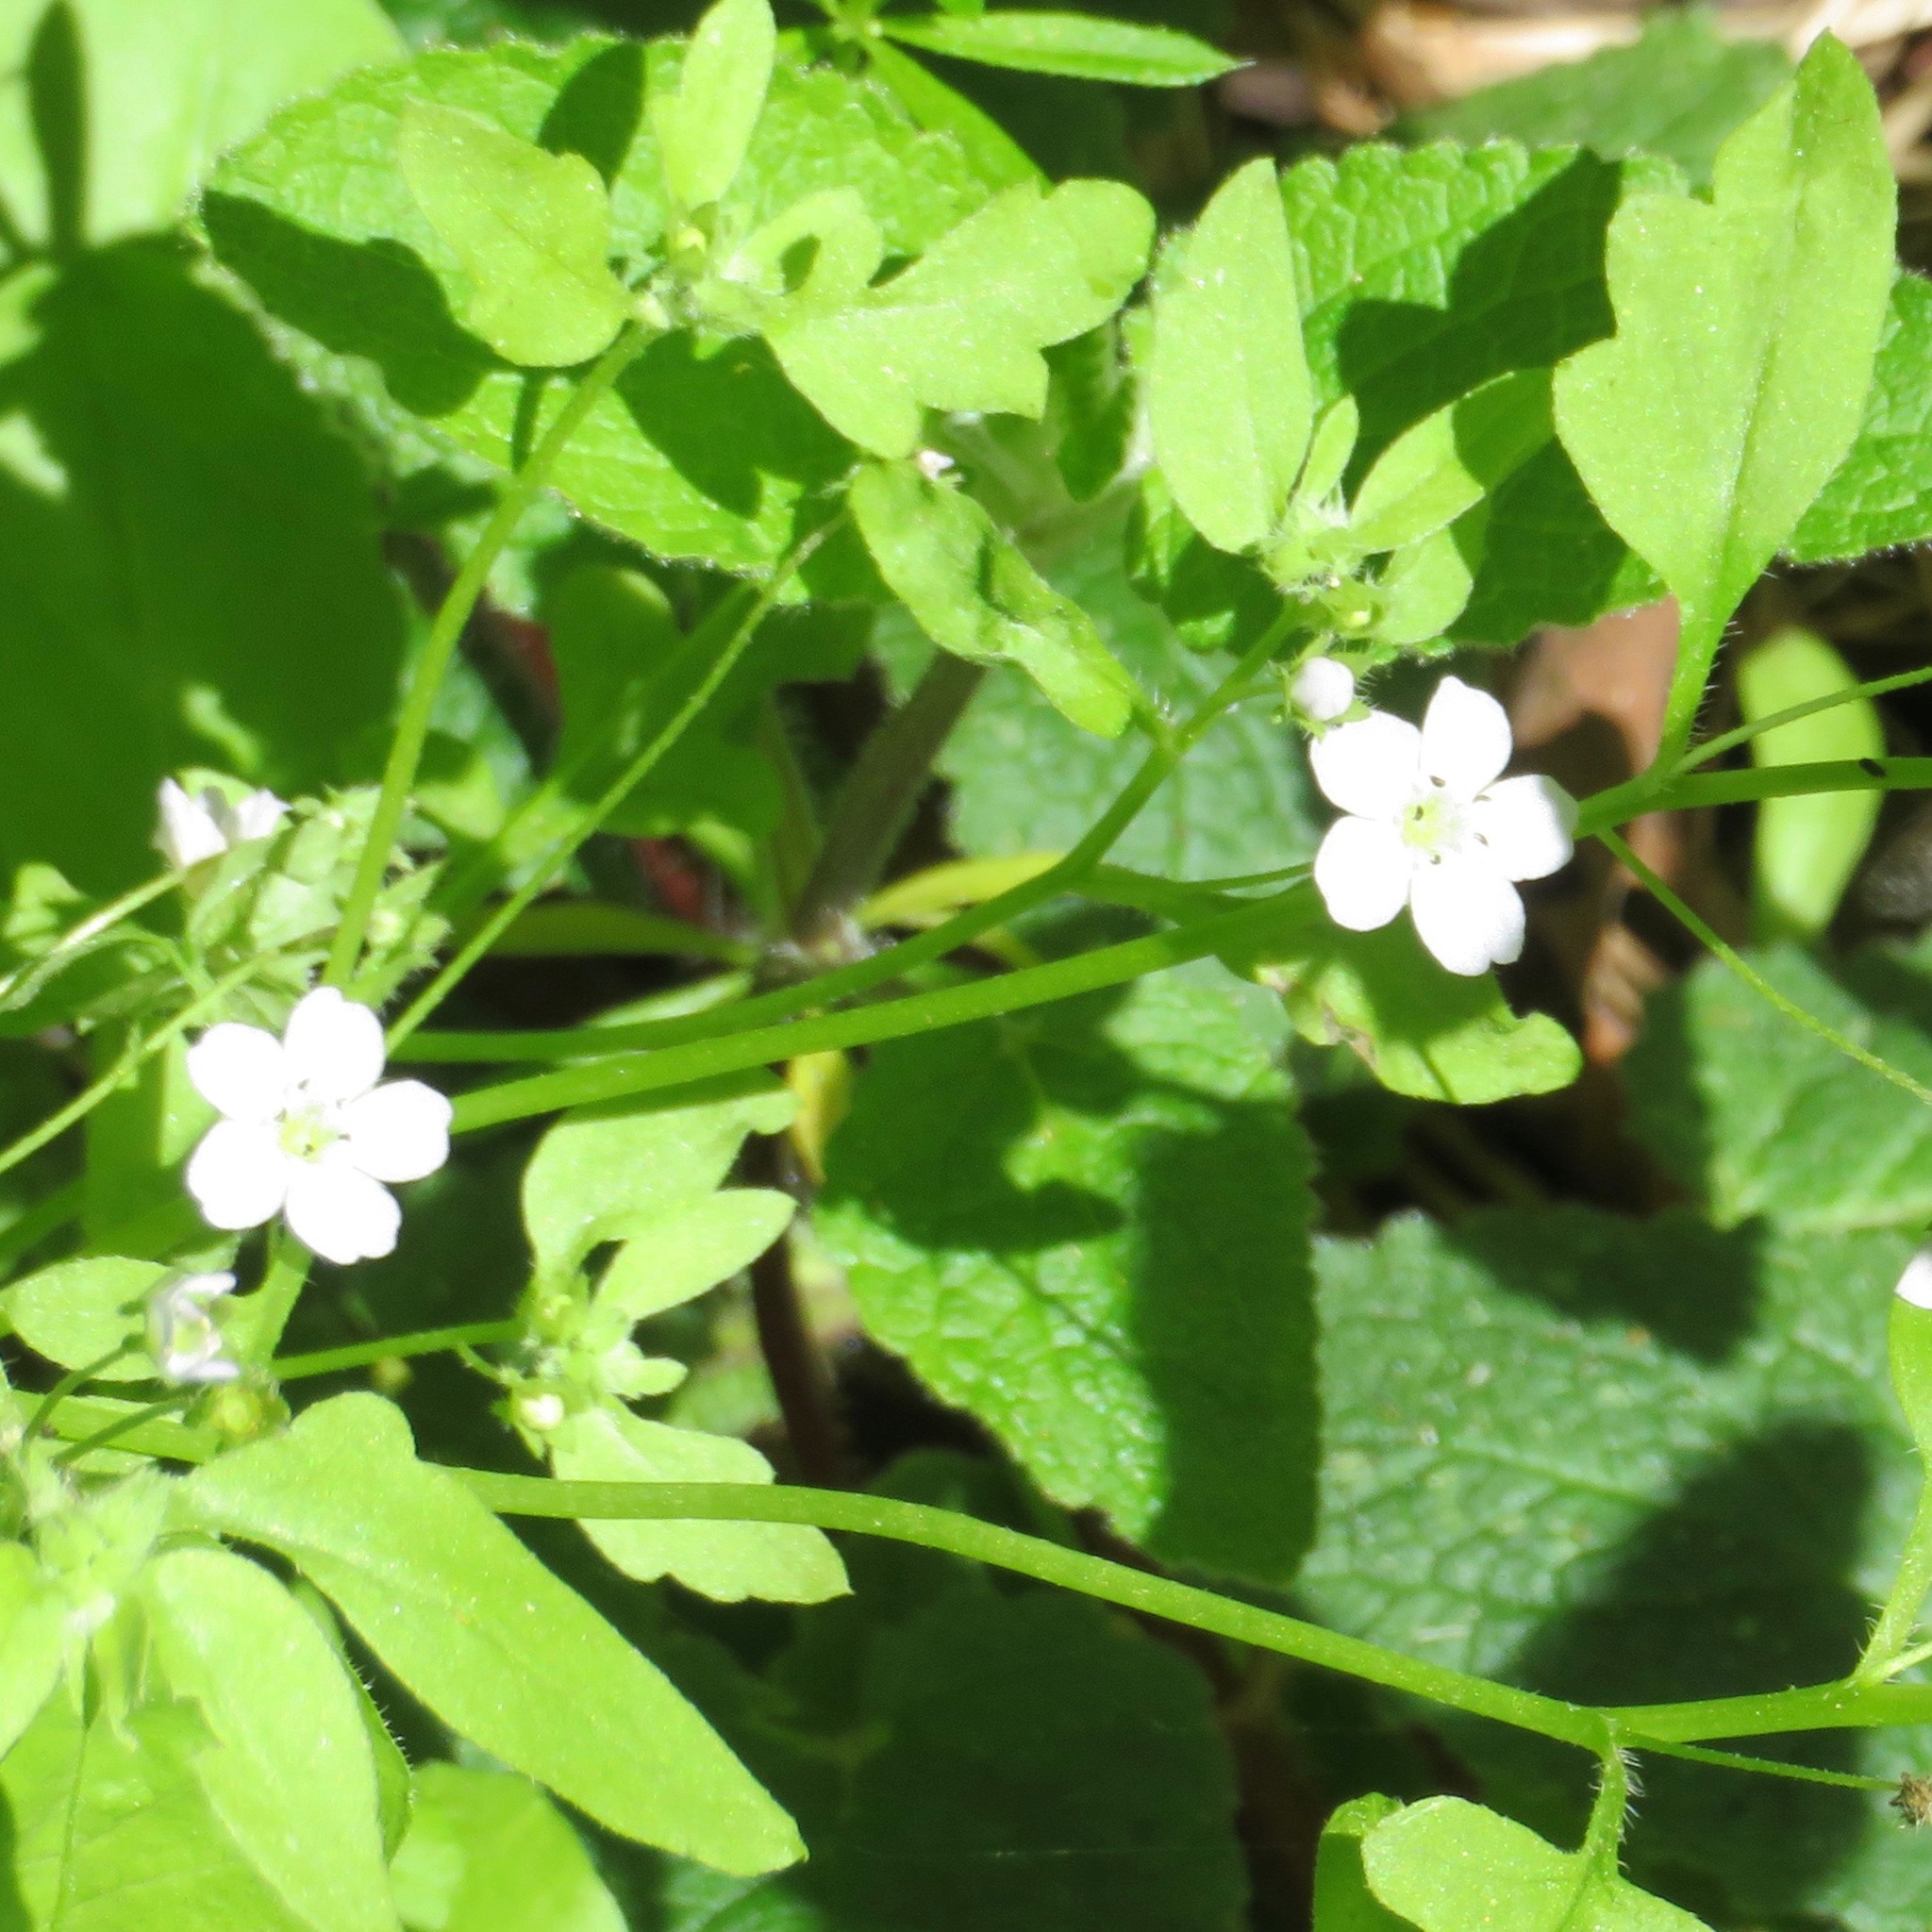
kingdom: Plantae
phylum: Tracheophyta
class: Magnoliopsida
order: Boraginales
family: Hydrophyllaceae
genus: Nemophila
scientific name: Nemophila heterophylla
